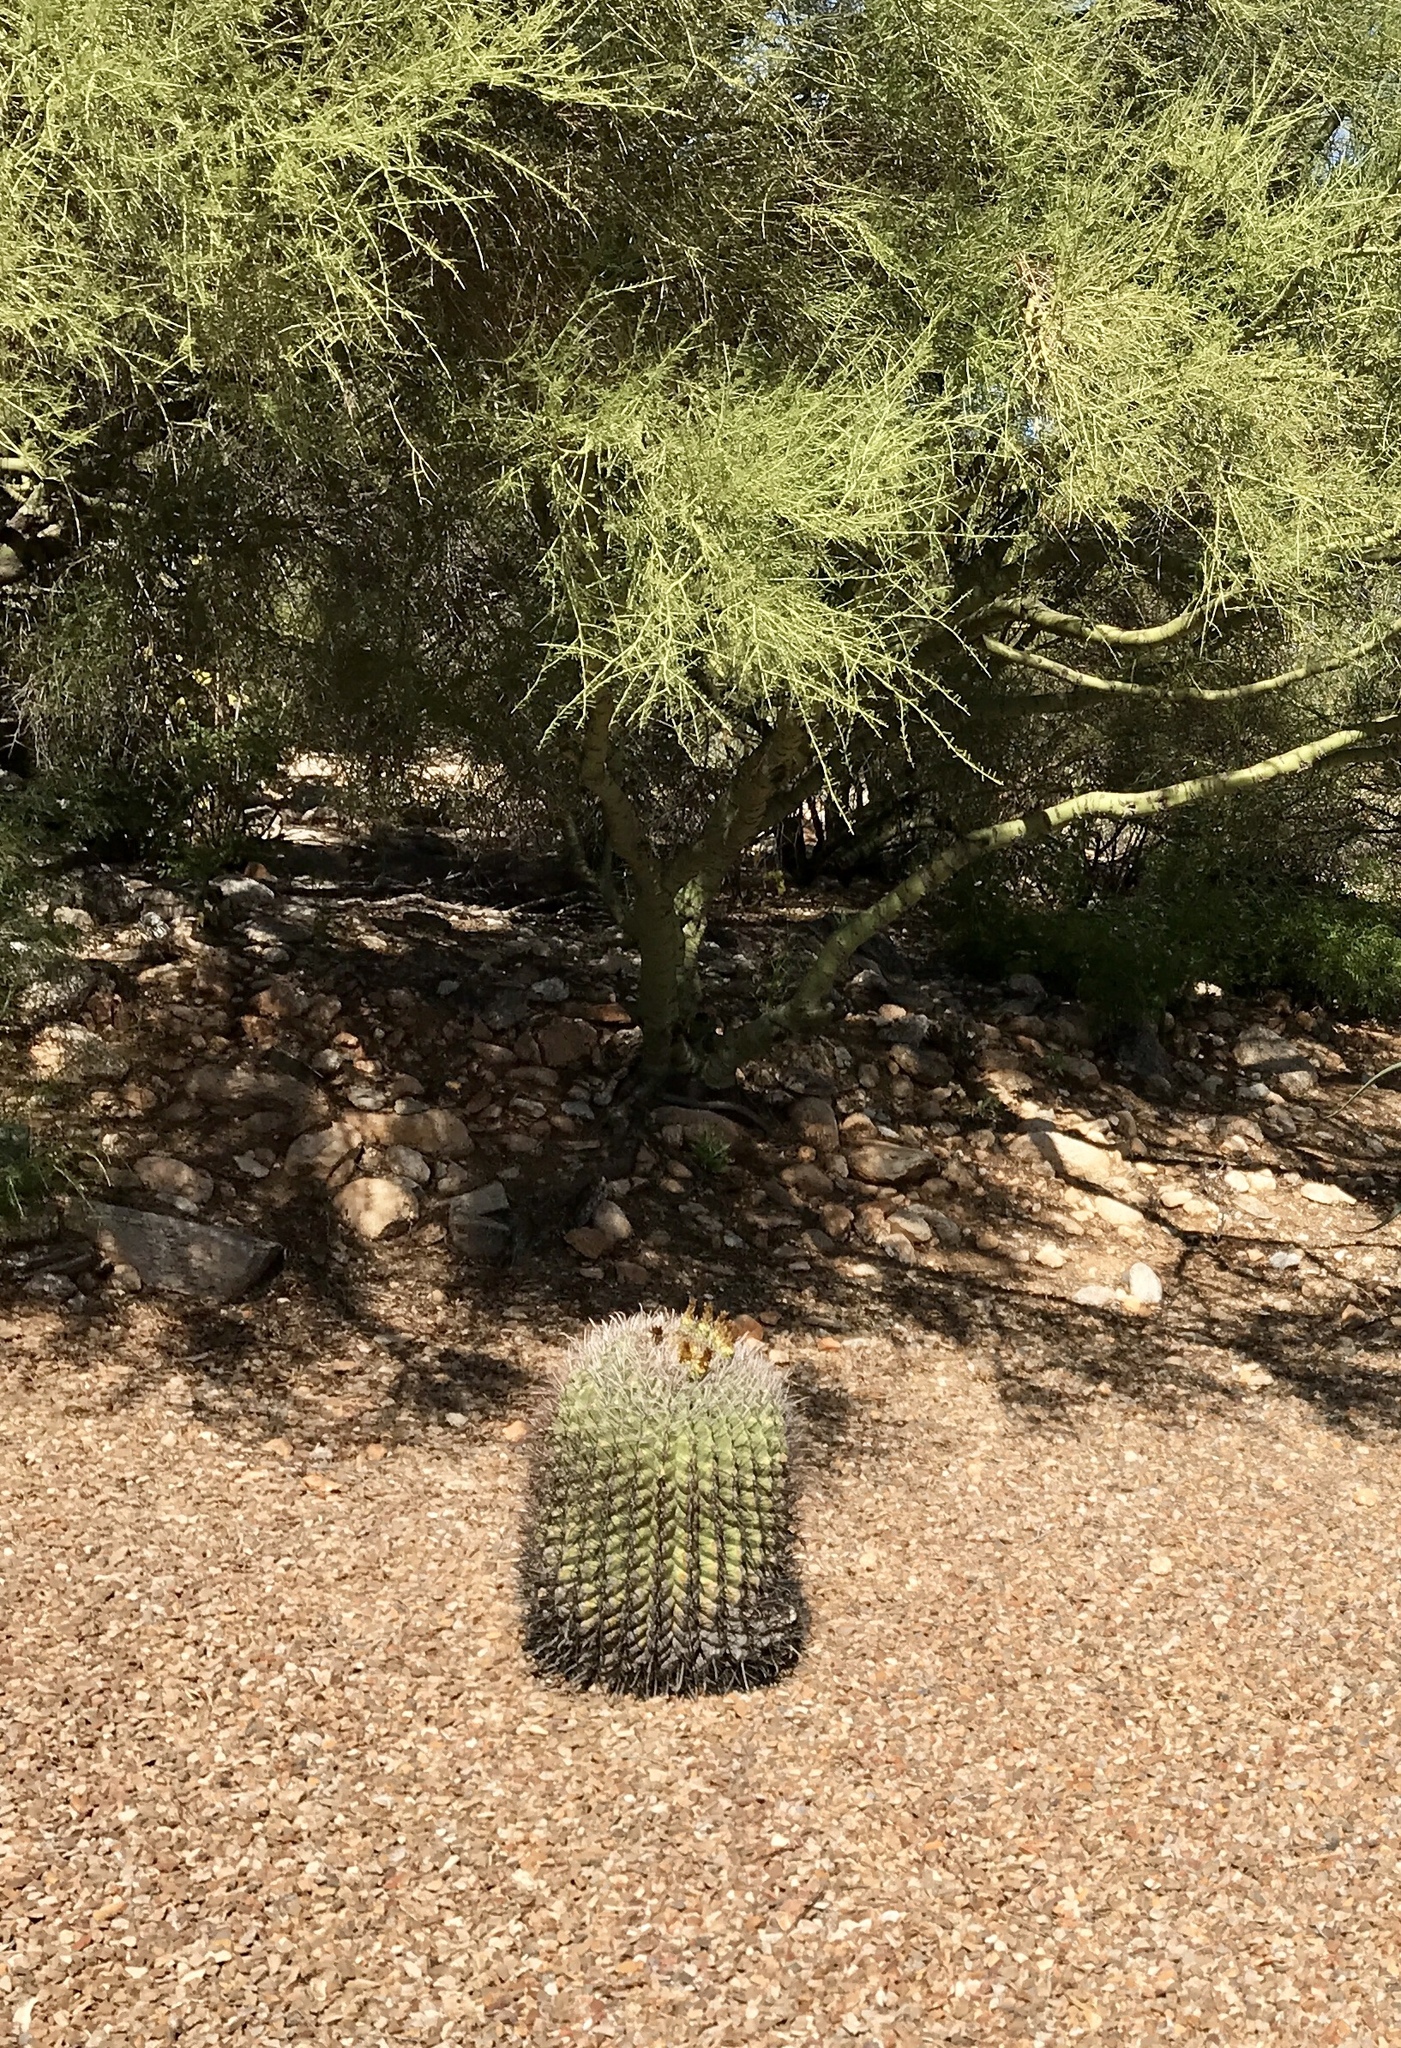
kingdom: Plantae
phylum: Tracheophyta
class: Magnoliopsida
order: Caryophyllales
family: Cactaceae
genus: Ferocactus
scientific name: Ferocactus wislizeni
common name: Candy barrel cactus
